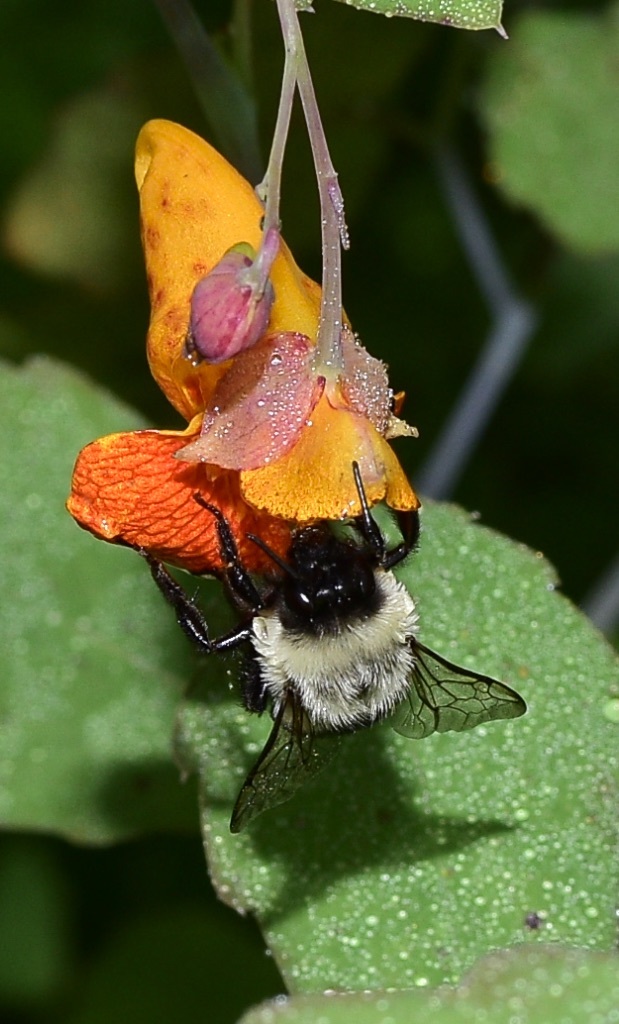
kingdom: Animalia
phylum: Arthropoda
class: Insecta
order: Hymenoptera
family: Apidae
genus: Bombus
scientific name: Bombus impatiens
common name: Common eastern bumble bee
